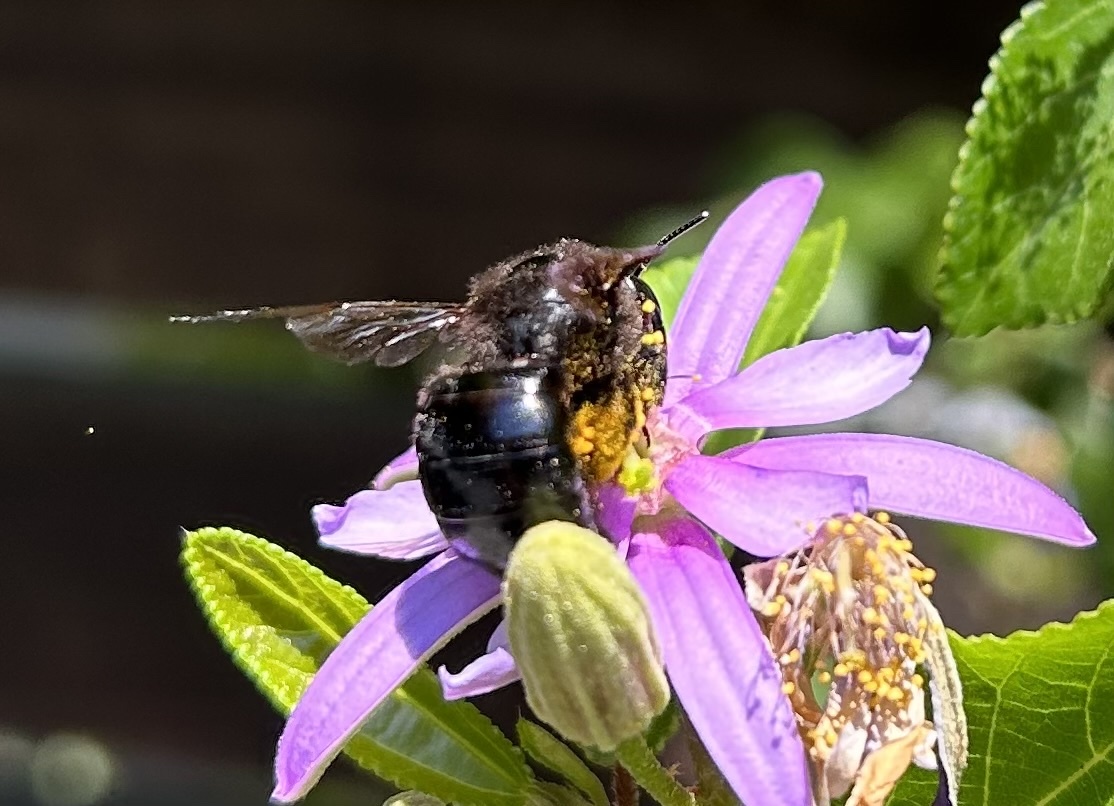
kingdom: Animalia
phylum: Arthropoda
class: Insecta
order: Hymenoptera
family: Apidae
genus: Xylocopa
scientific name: Xylocopa tabaniformis
